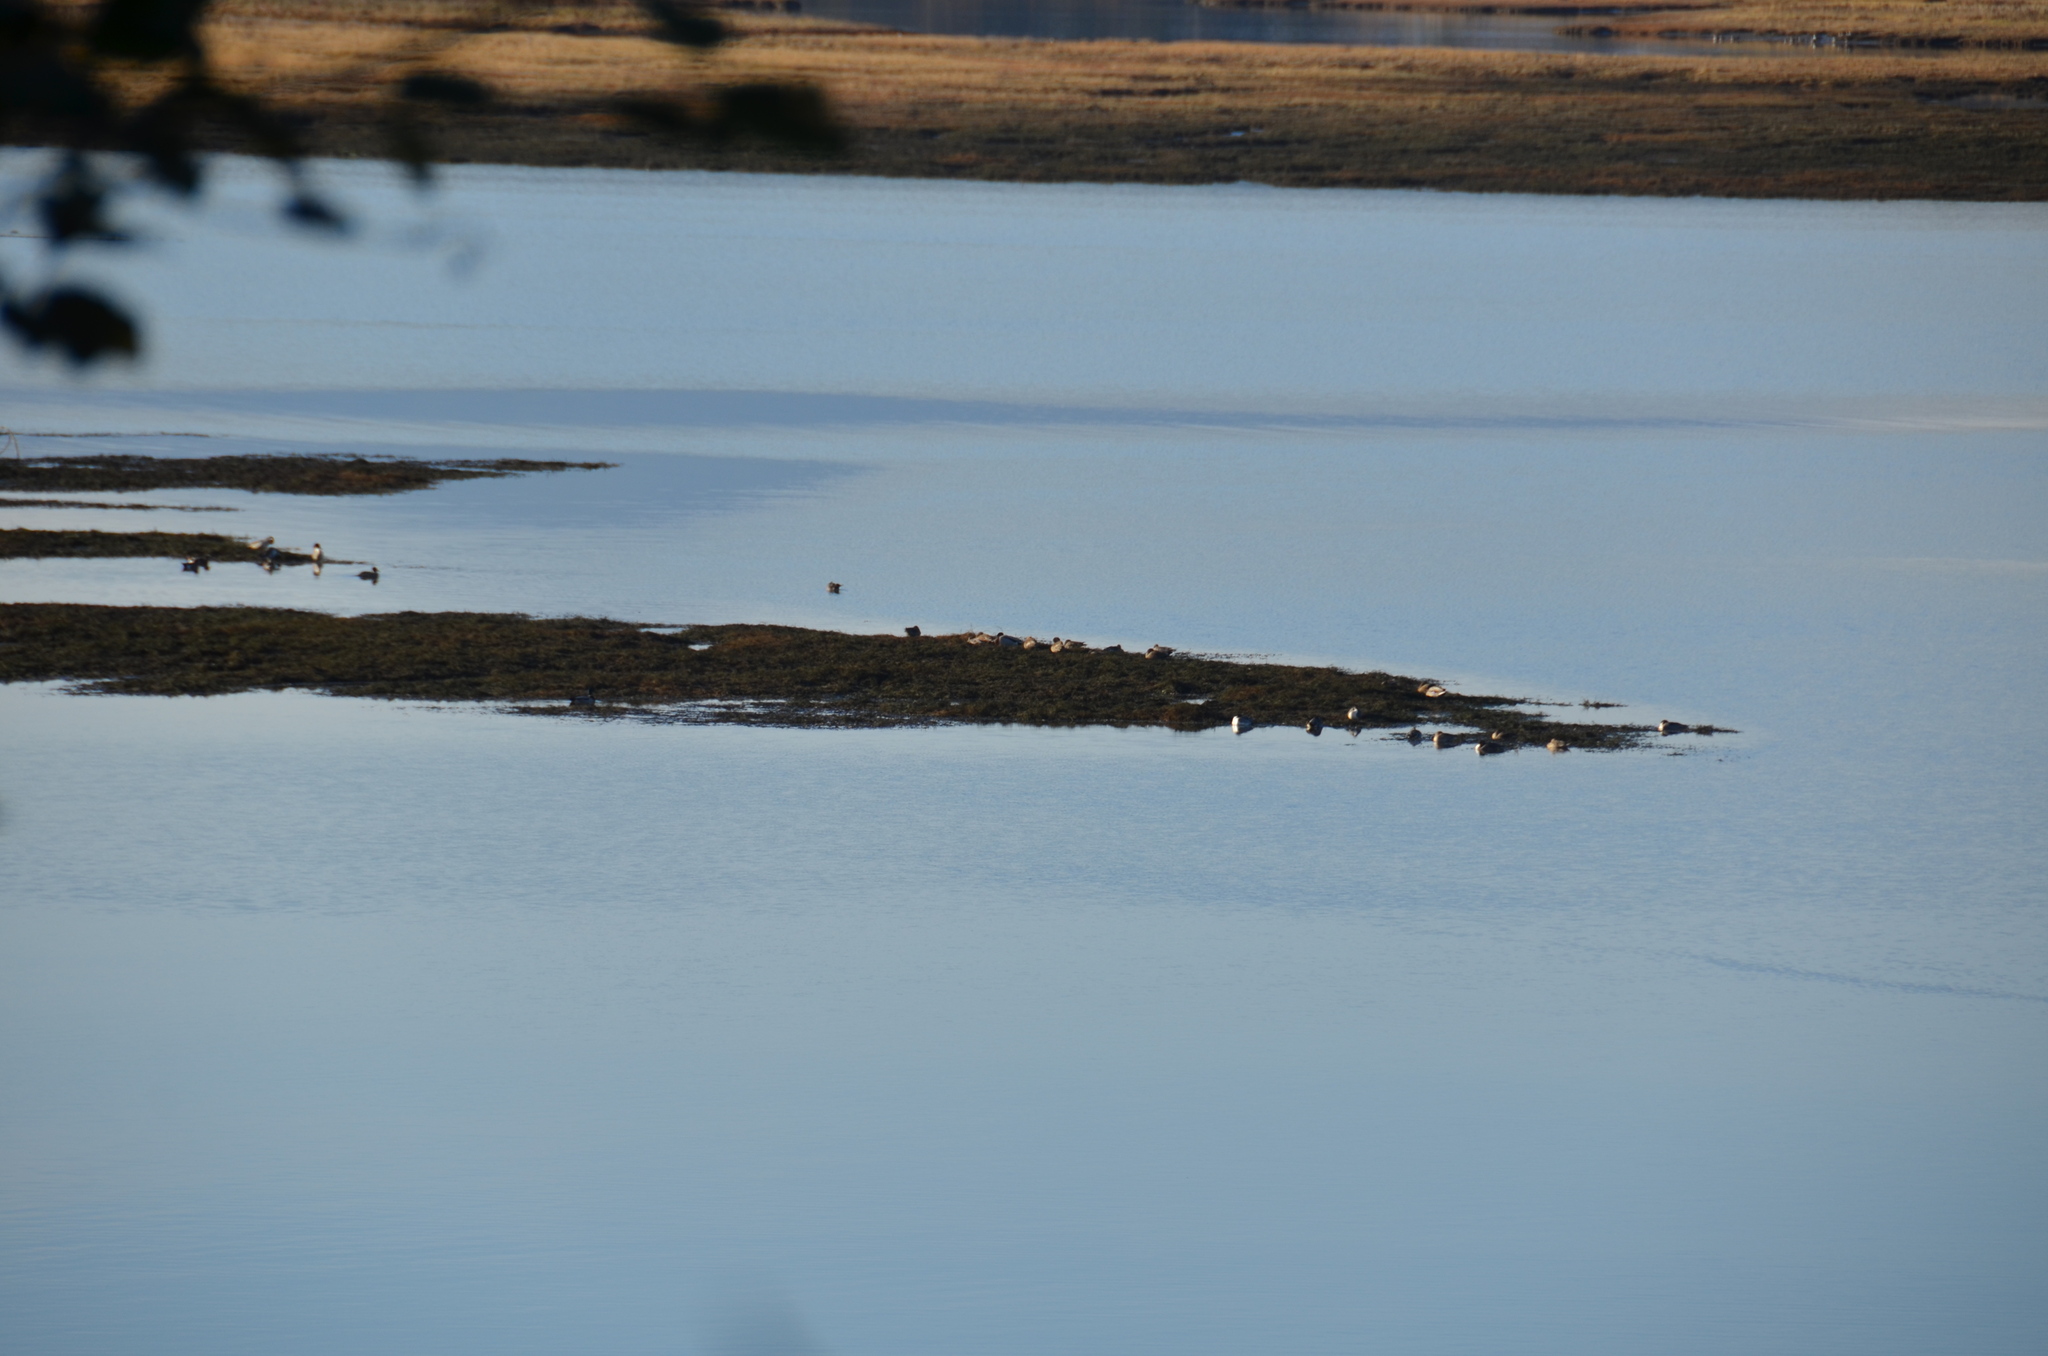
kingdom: Animalia
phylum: Chordata
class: Aves
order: Anseriformes
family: Anatidae
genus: Anas
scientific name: Anas acuta
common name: Northern pintail
